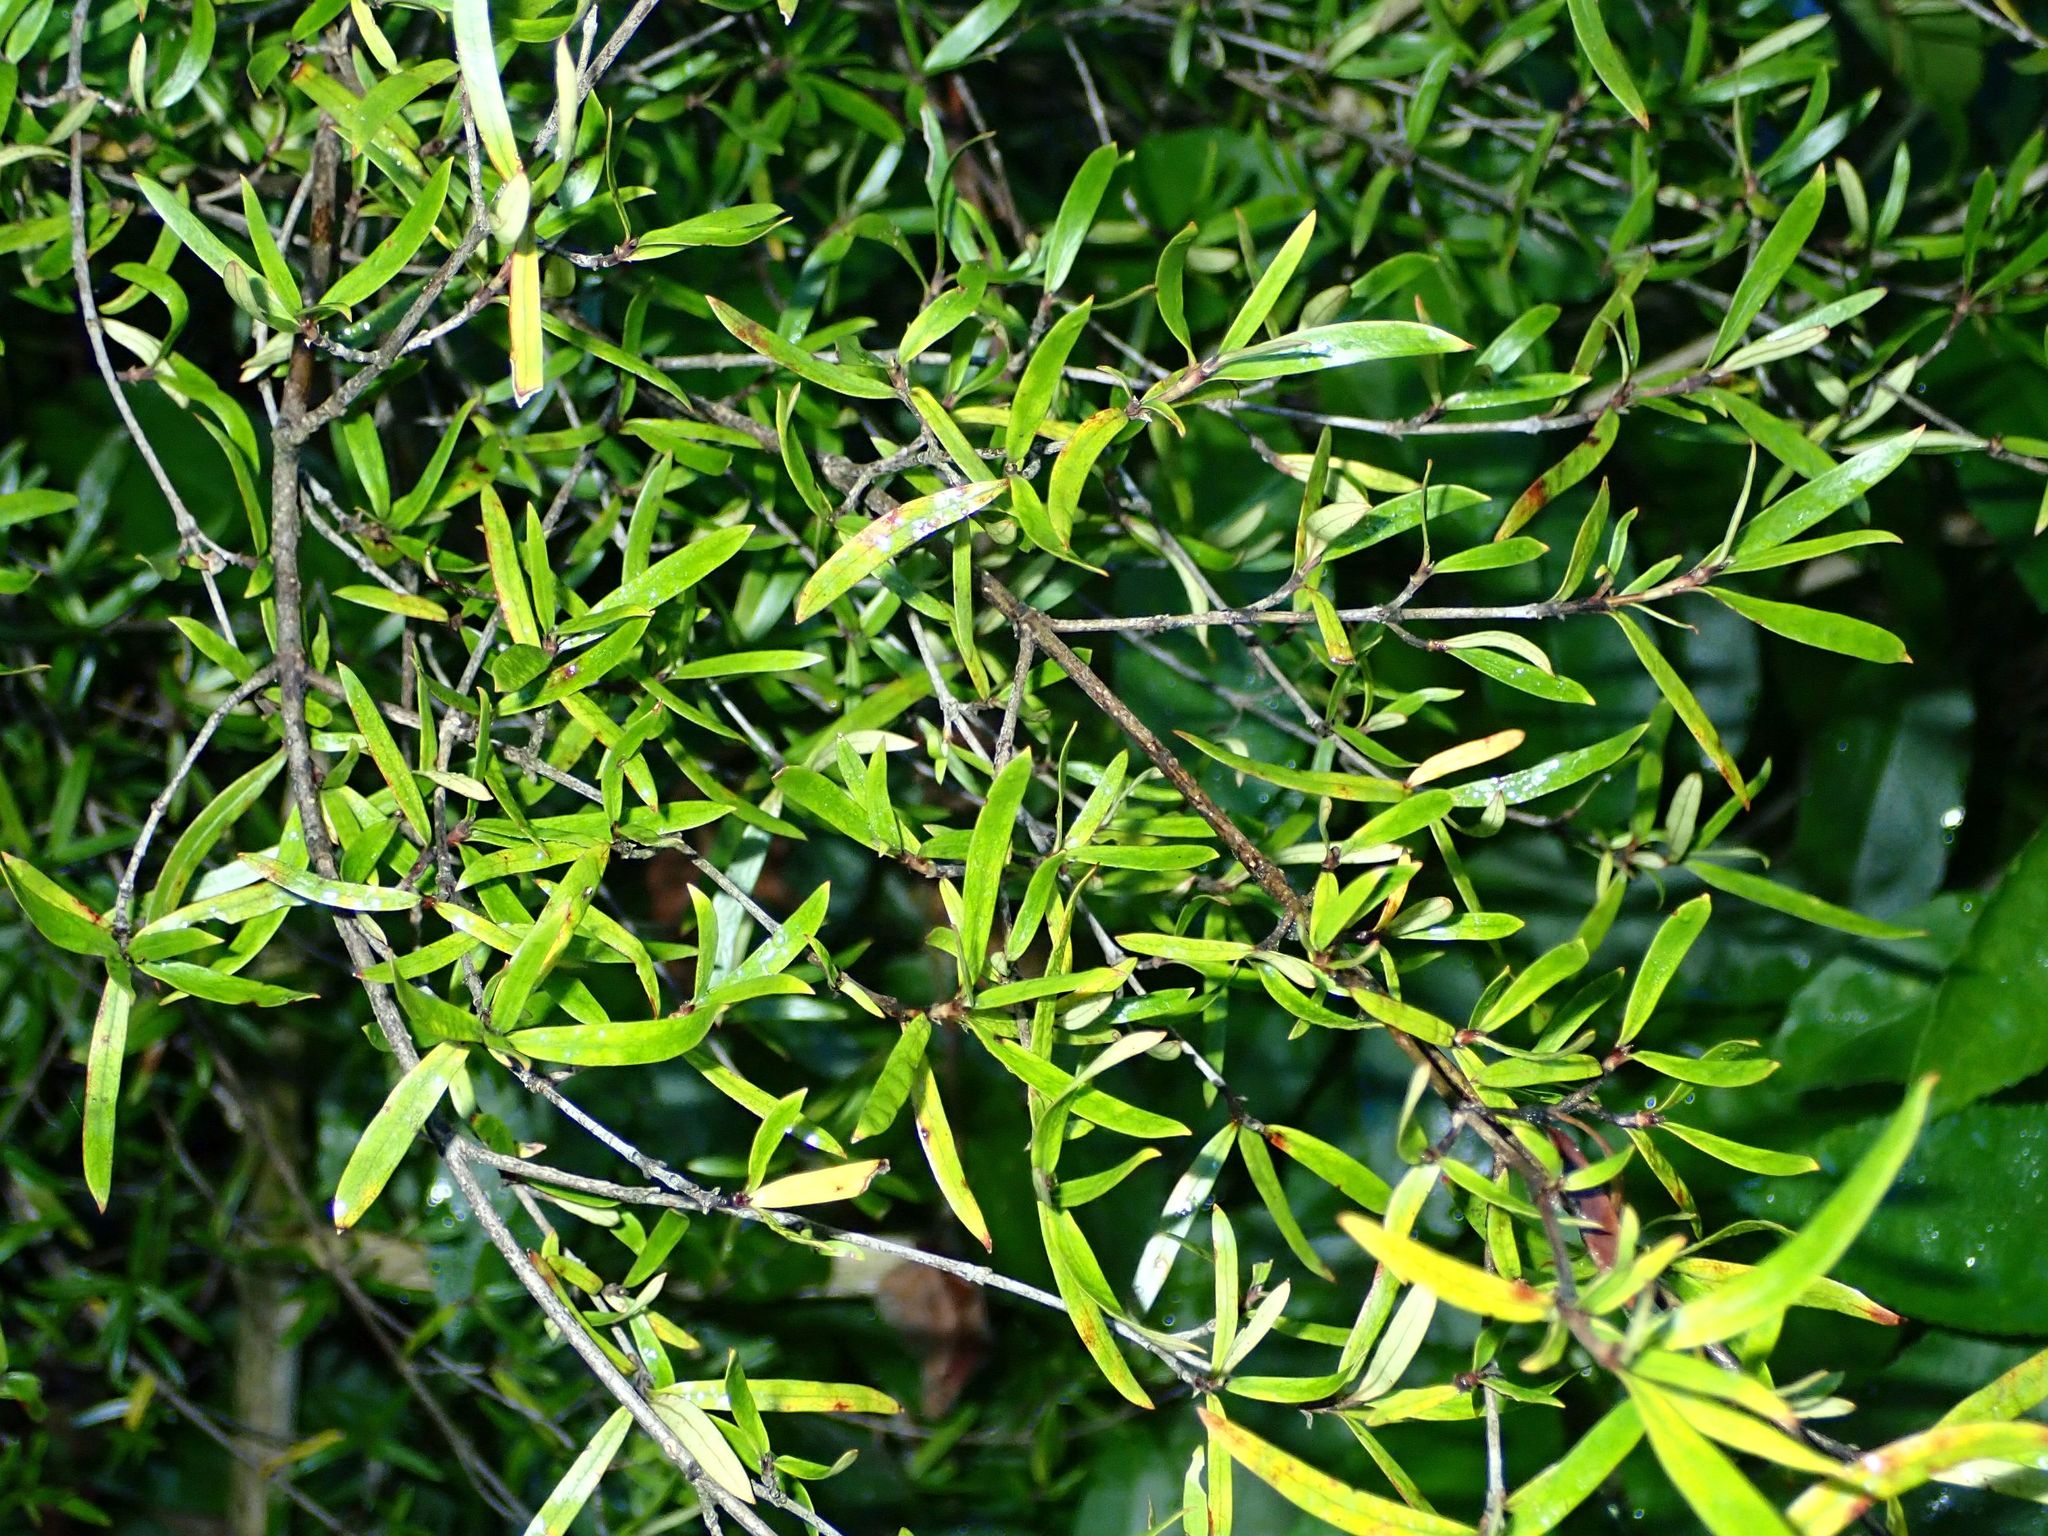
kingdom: Plantae
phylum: Tracheophyta
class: Magnoliopsida
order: Gentianales
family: Rubiaceae
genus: Coprosma
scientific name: Coprosma linariifolia
